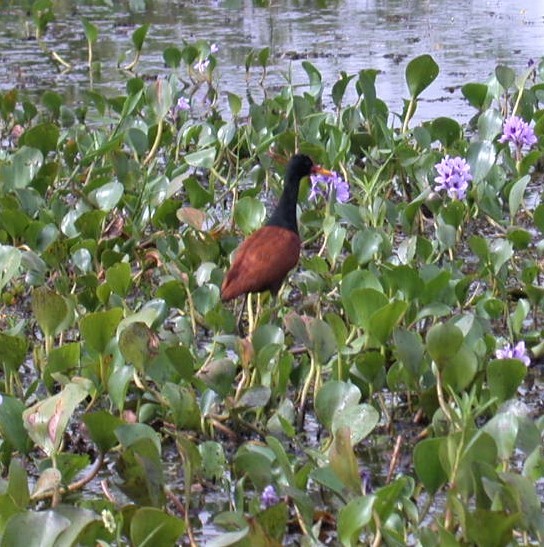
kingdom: Animalia
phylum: Chordata
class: Aves
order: Charadriiformes
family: Jacanidae
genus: Jacana
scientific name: Jacana jacana
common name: Wattled jacana
